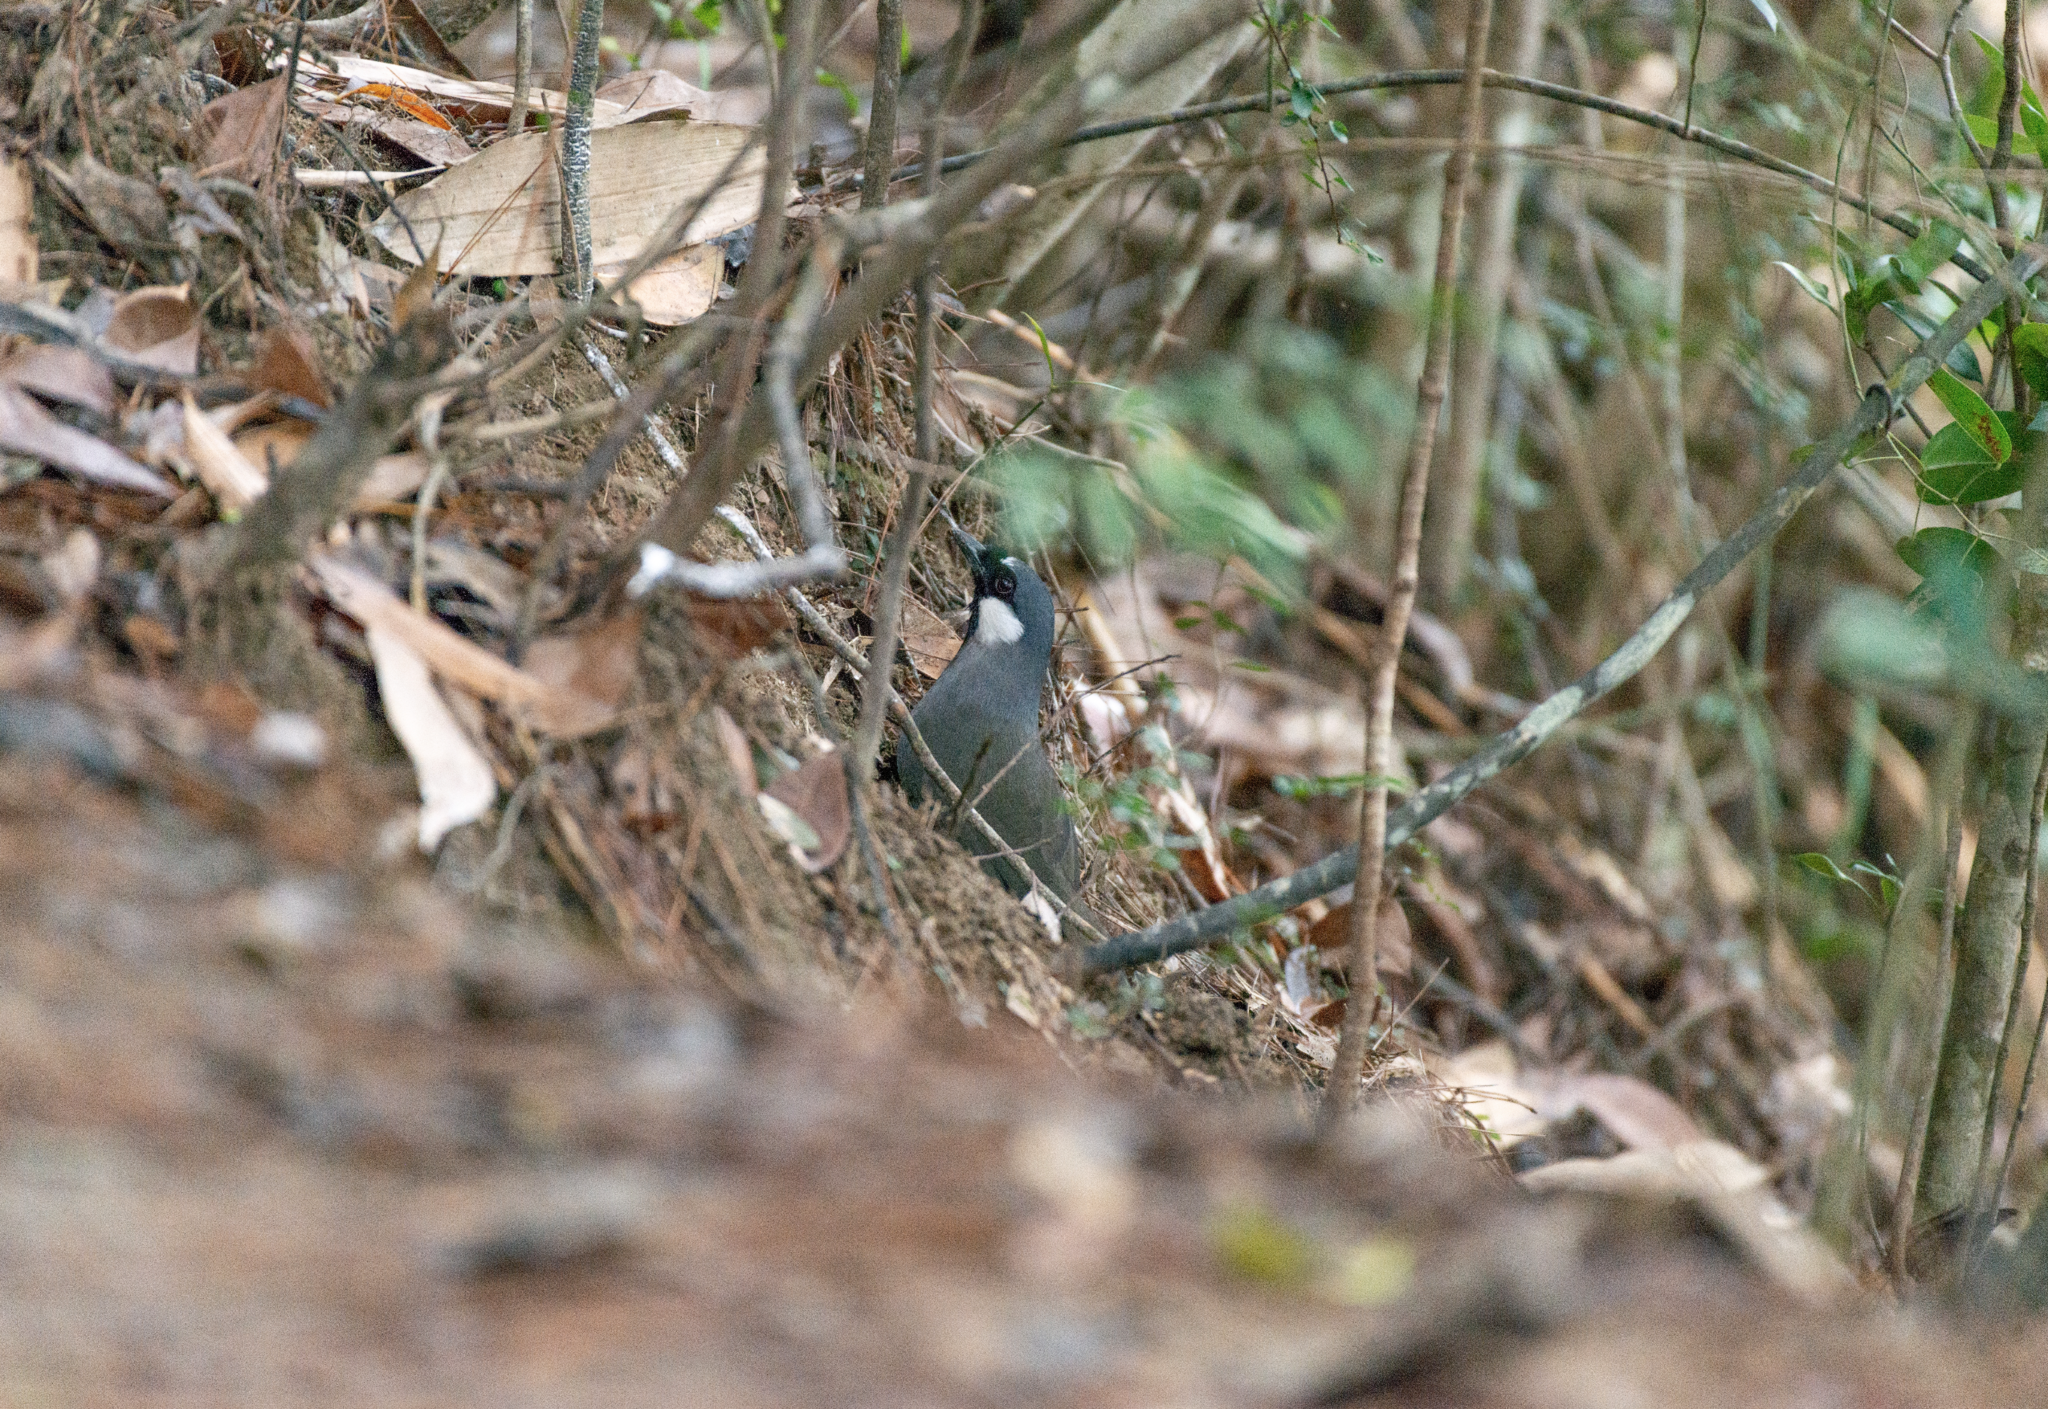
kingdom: Animalia
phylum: Chordata
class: Aves
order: Passeriformes
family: Leiothrichidae
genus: Garrulax
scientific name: Garrulax chinensis
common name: Black-throated laughingthrush
